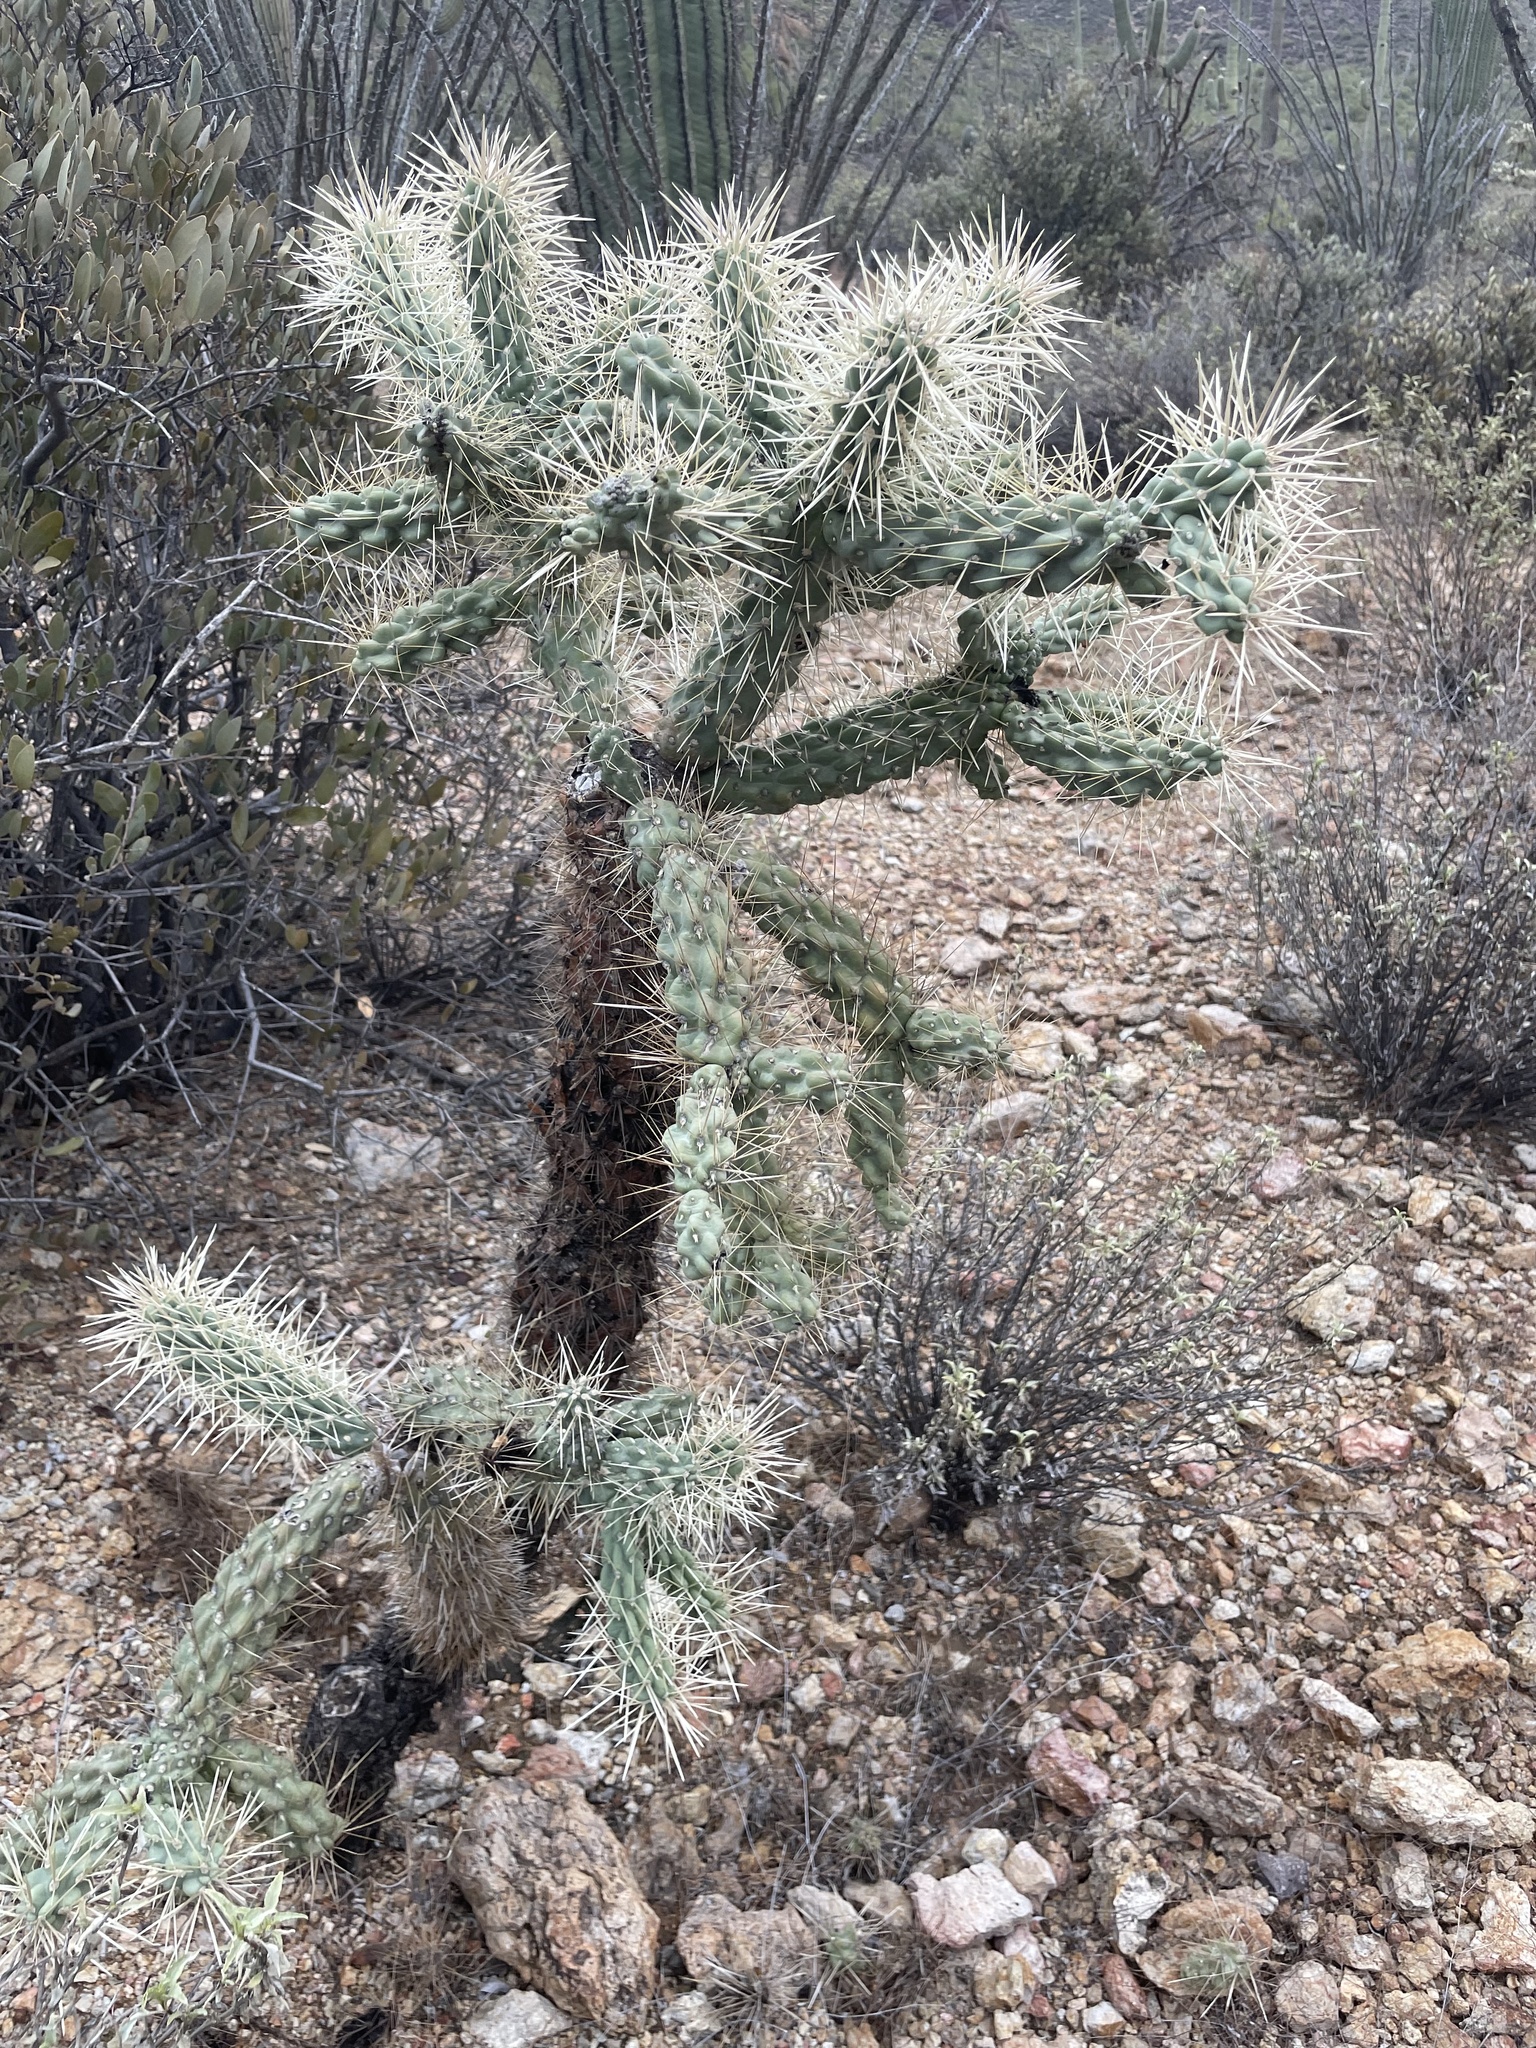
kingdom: Plantae
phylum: Tracheophyta
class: Magnoliopsida
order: Caryophyllales
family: Cactaceae
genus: Cylindropuntia
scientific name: Cylindropuntia fulgida
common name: Jumping cholla
